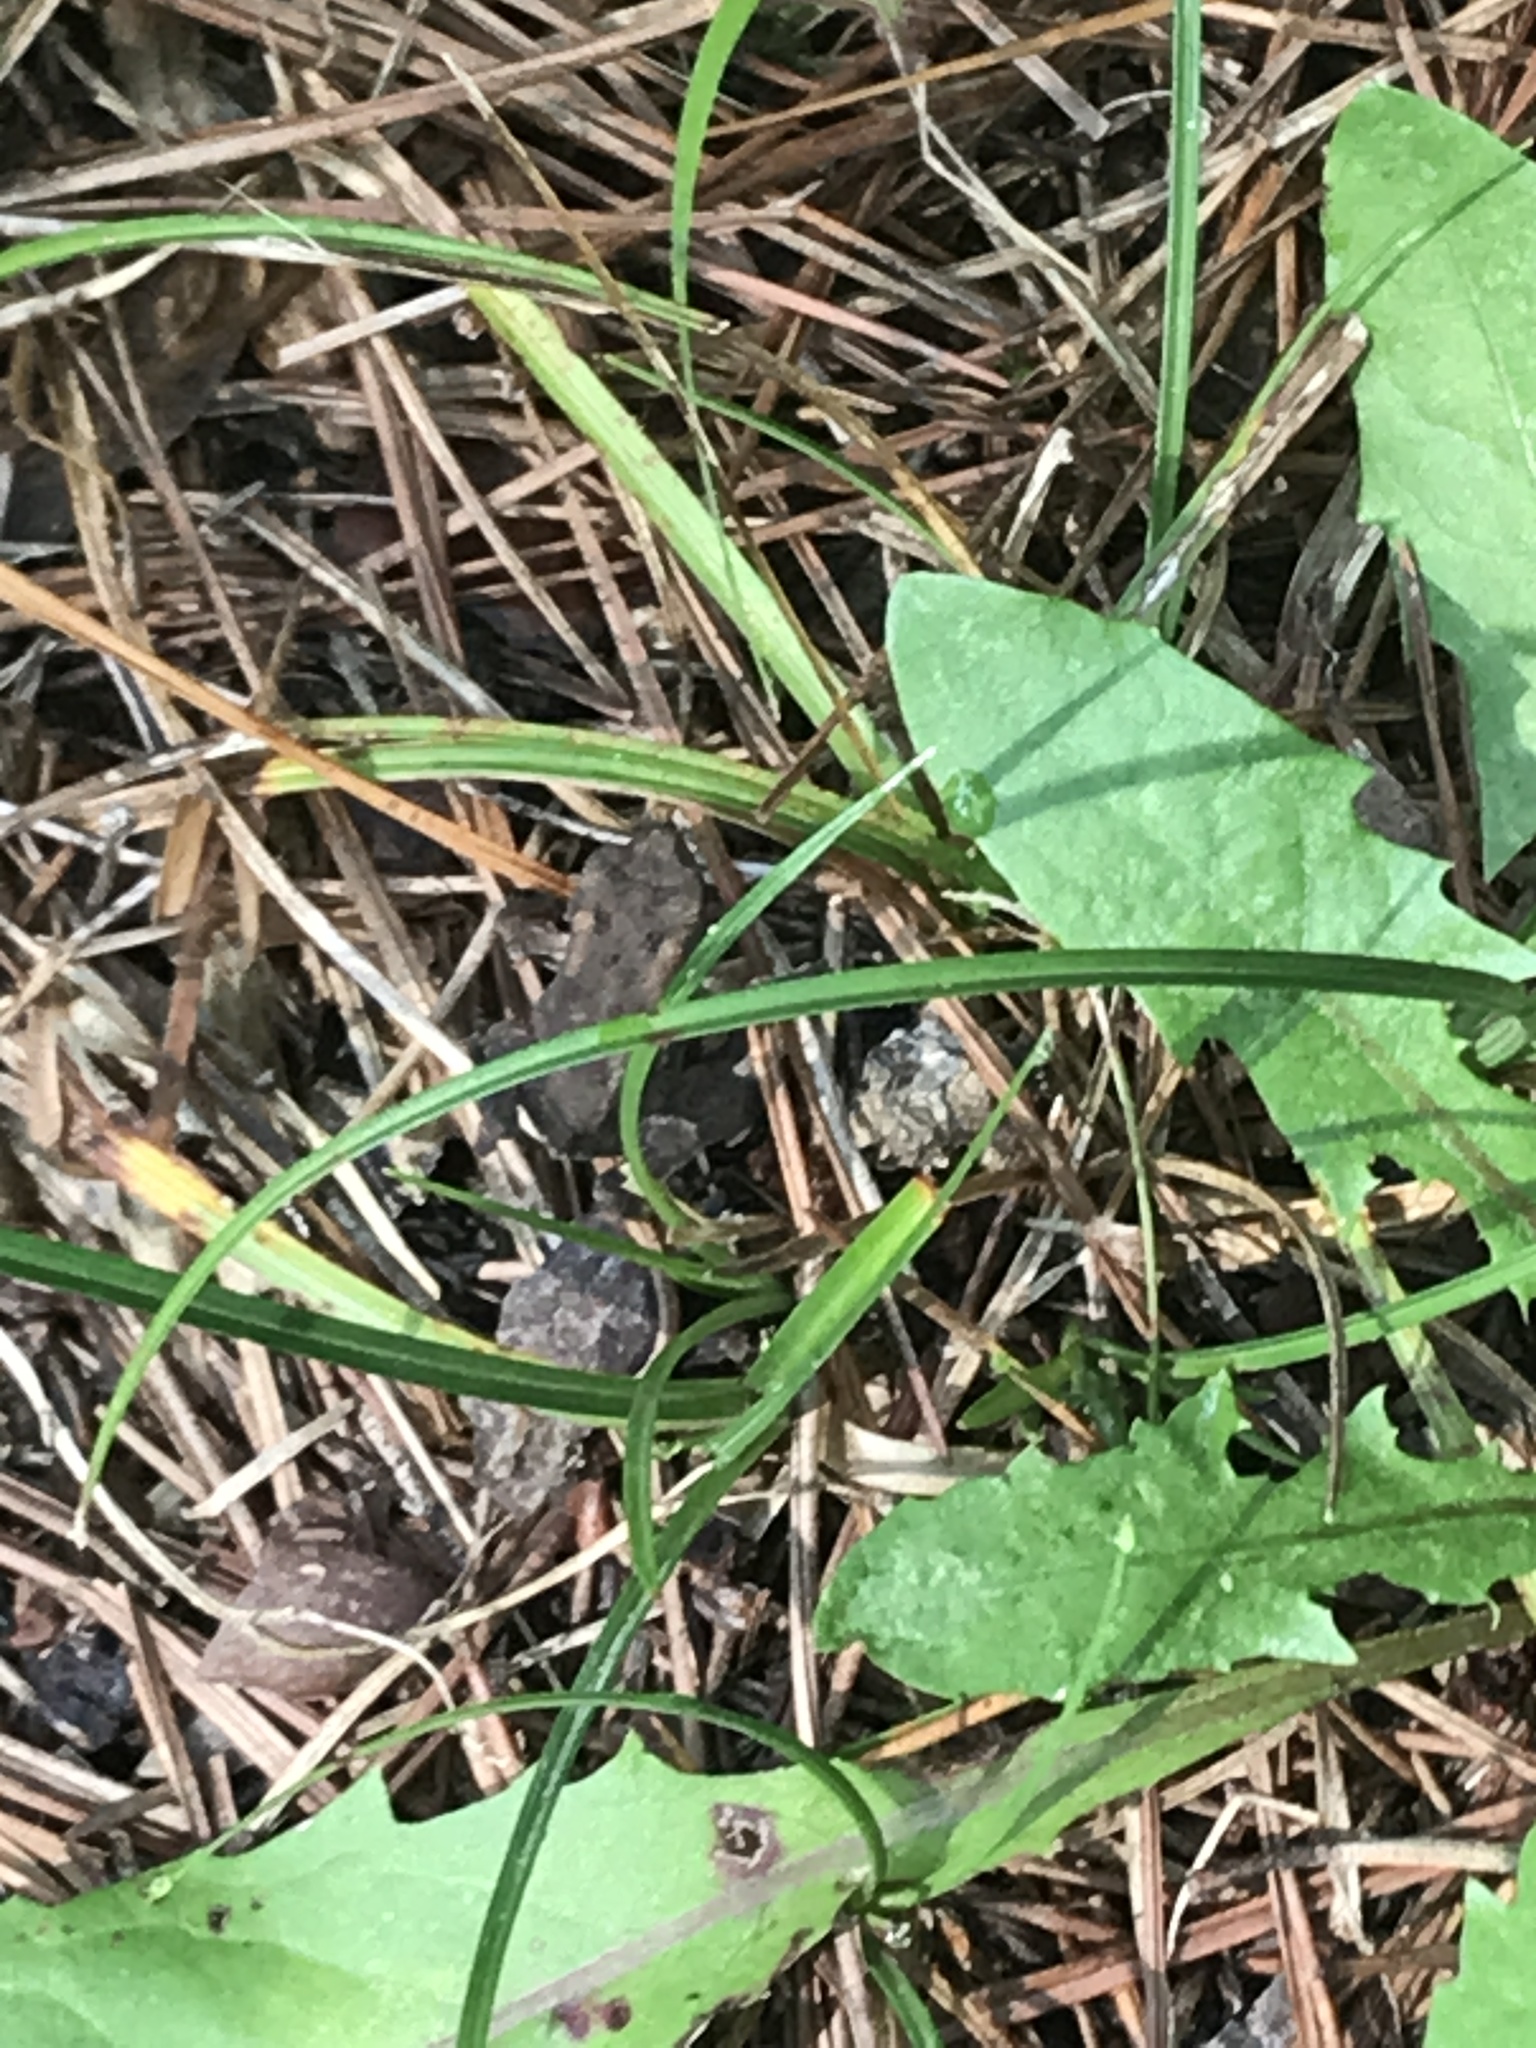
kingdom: Animalia
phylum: Chordata
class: Amphibia
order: Anura
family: Bufonidae
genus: Anaxyrus
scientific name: Anaxyrus americanus
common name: American toad
